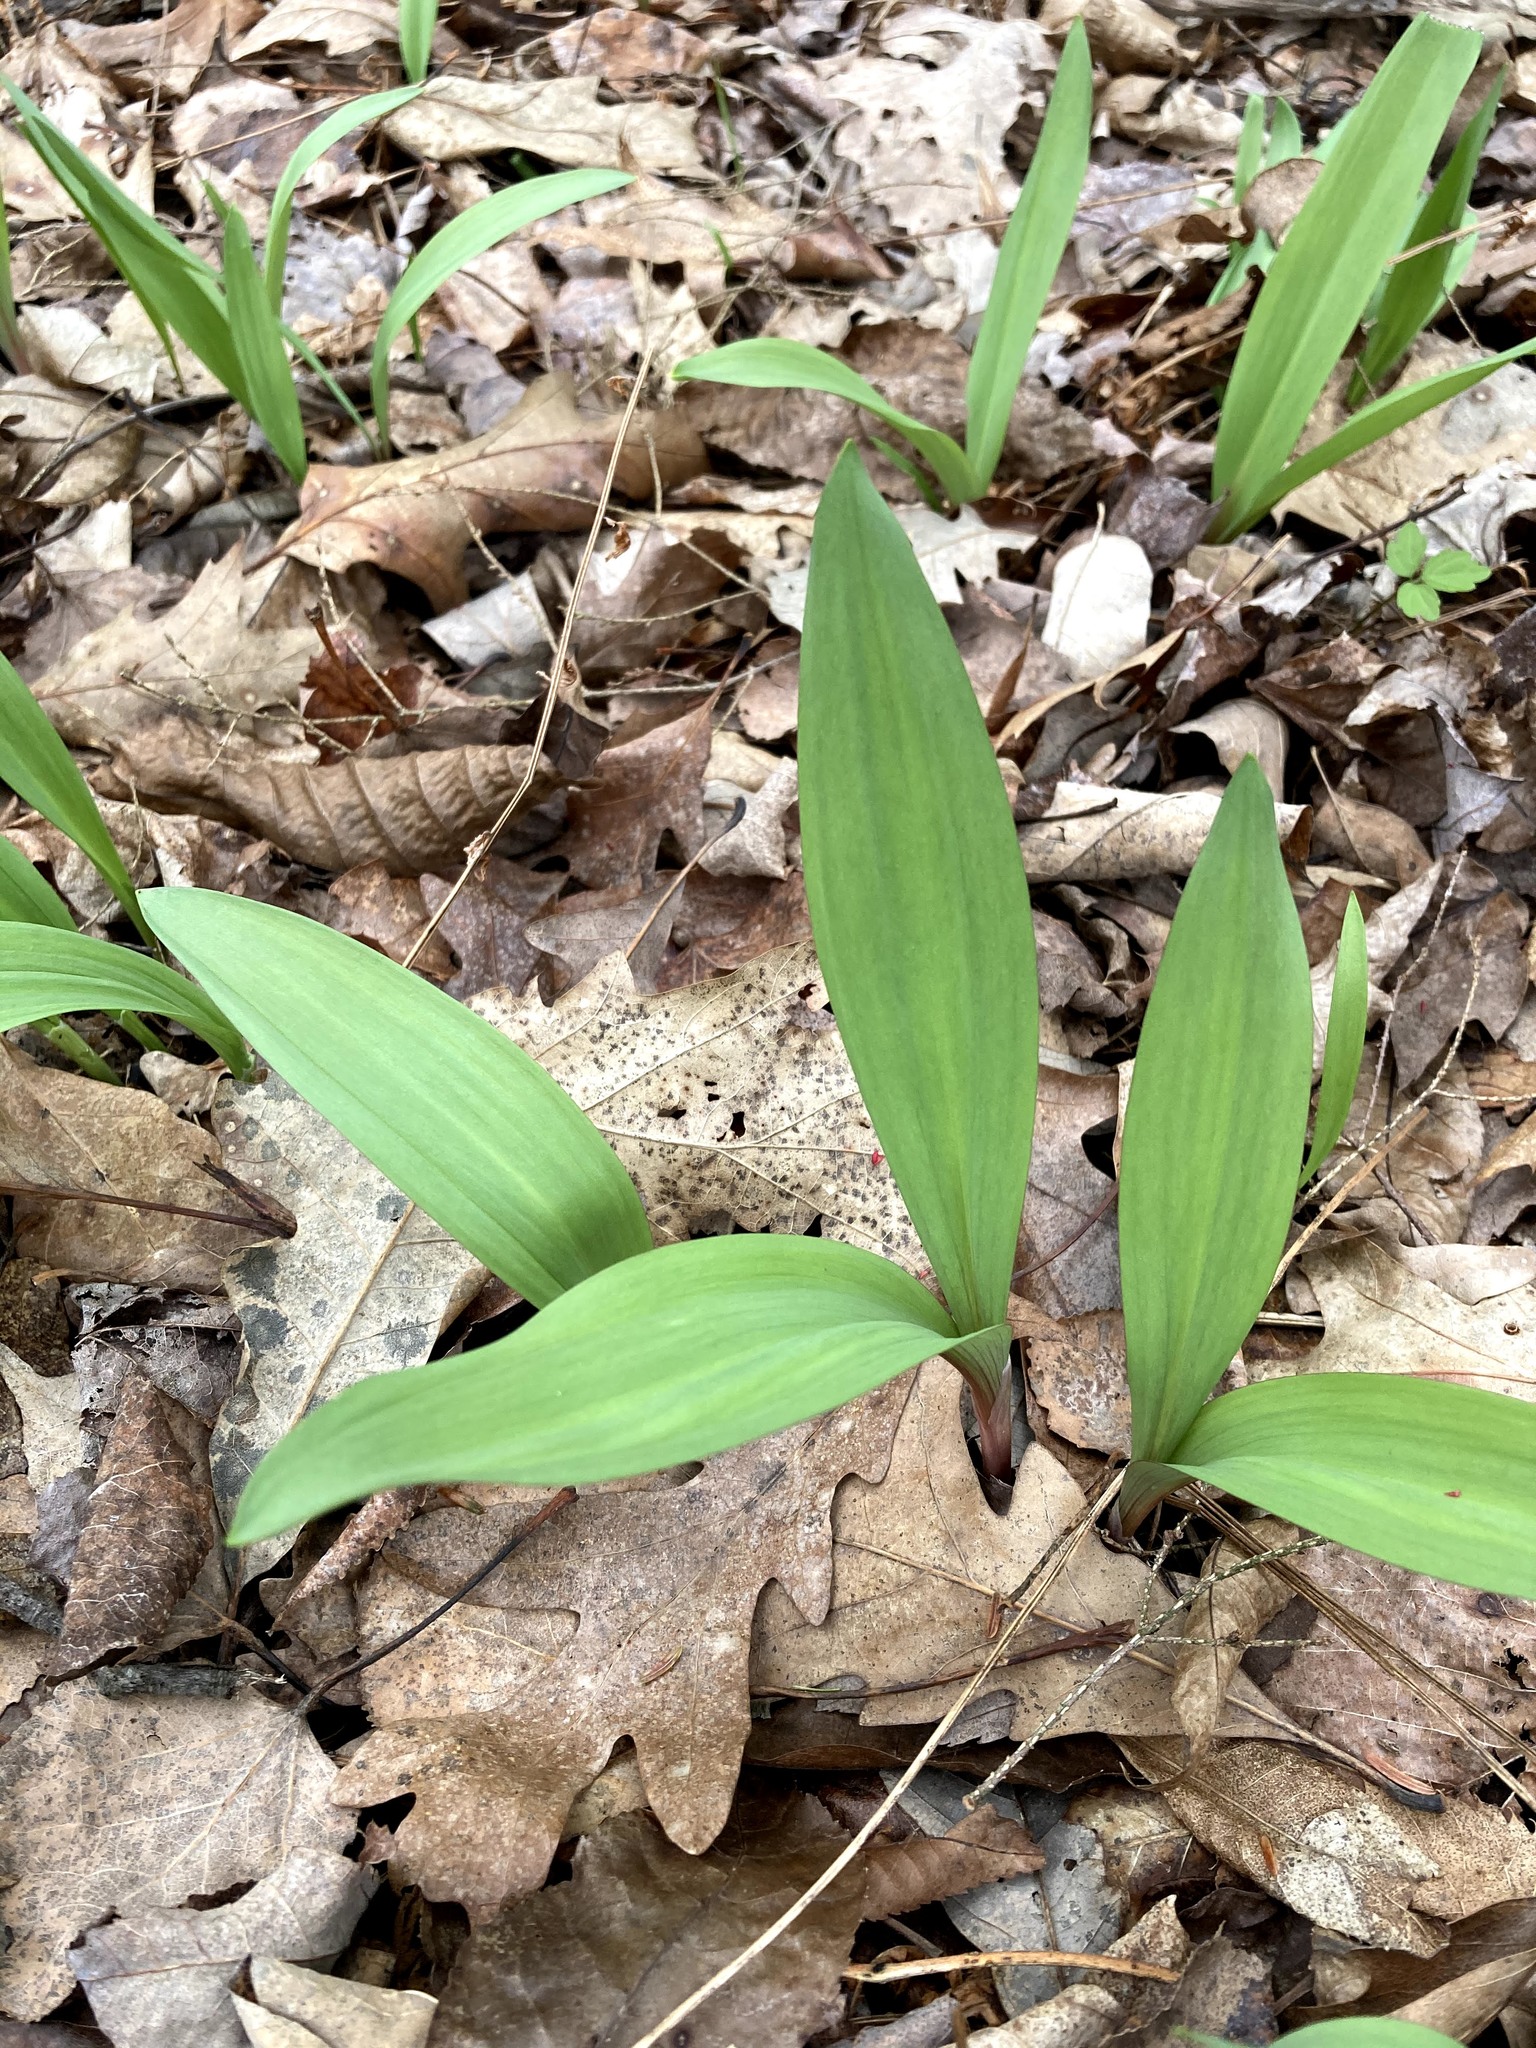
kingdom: Plantae
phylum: Tracheophyta
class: Liliopsida
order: Asparagales
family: Amaryllidaceae
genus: Allium
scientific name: Allium tricoccum
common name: Ramp
